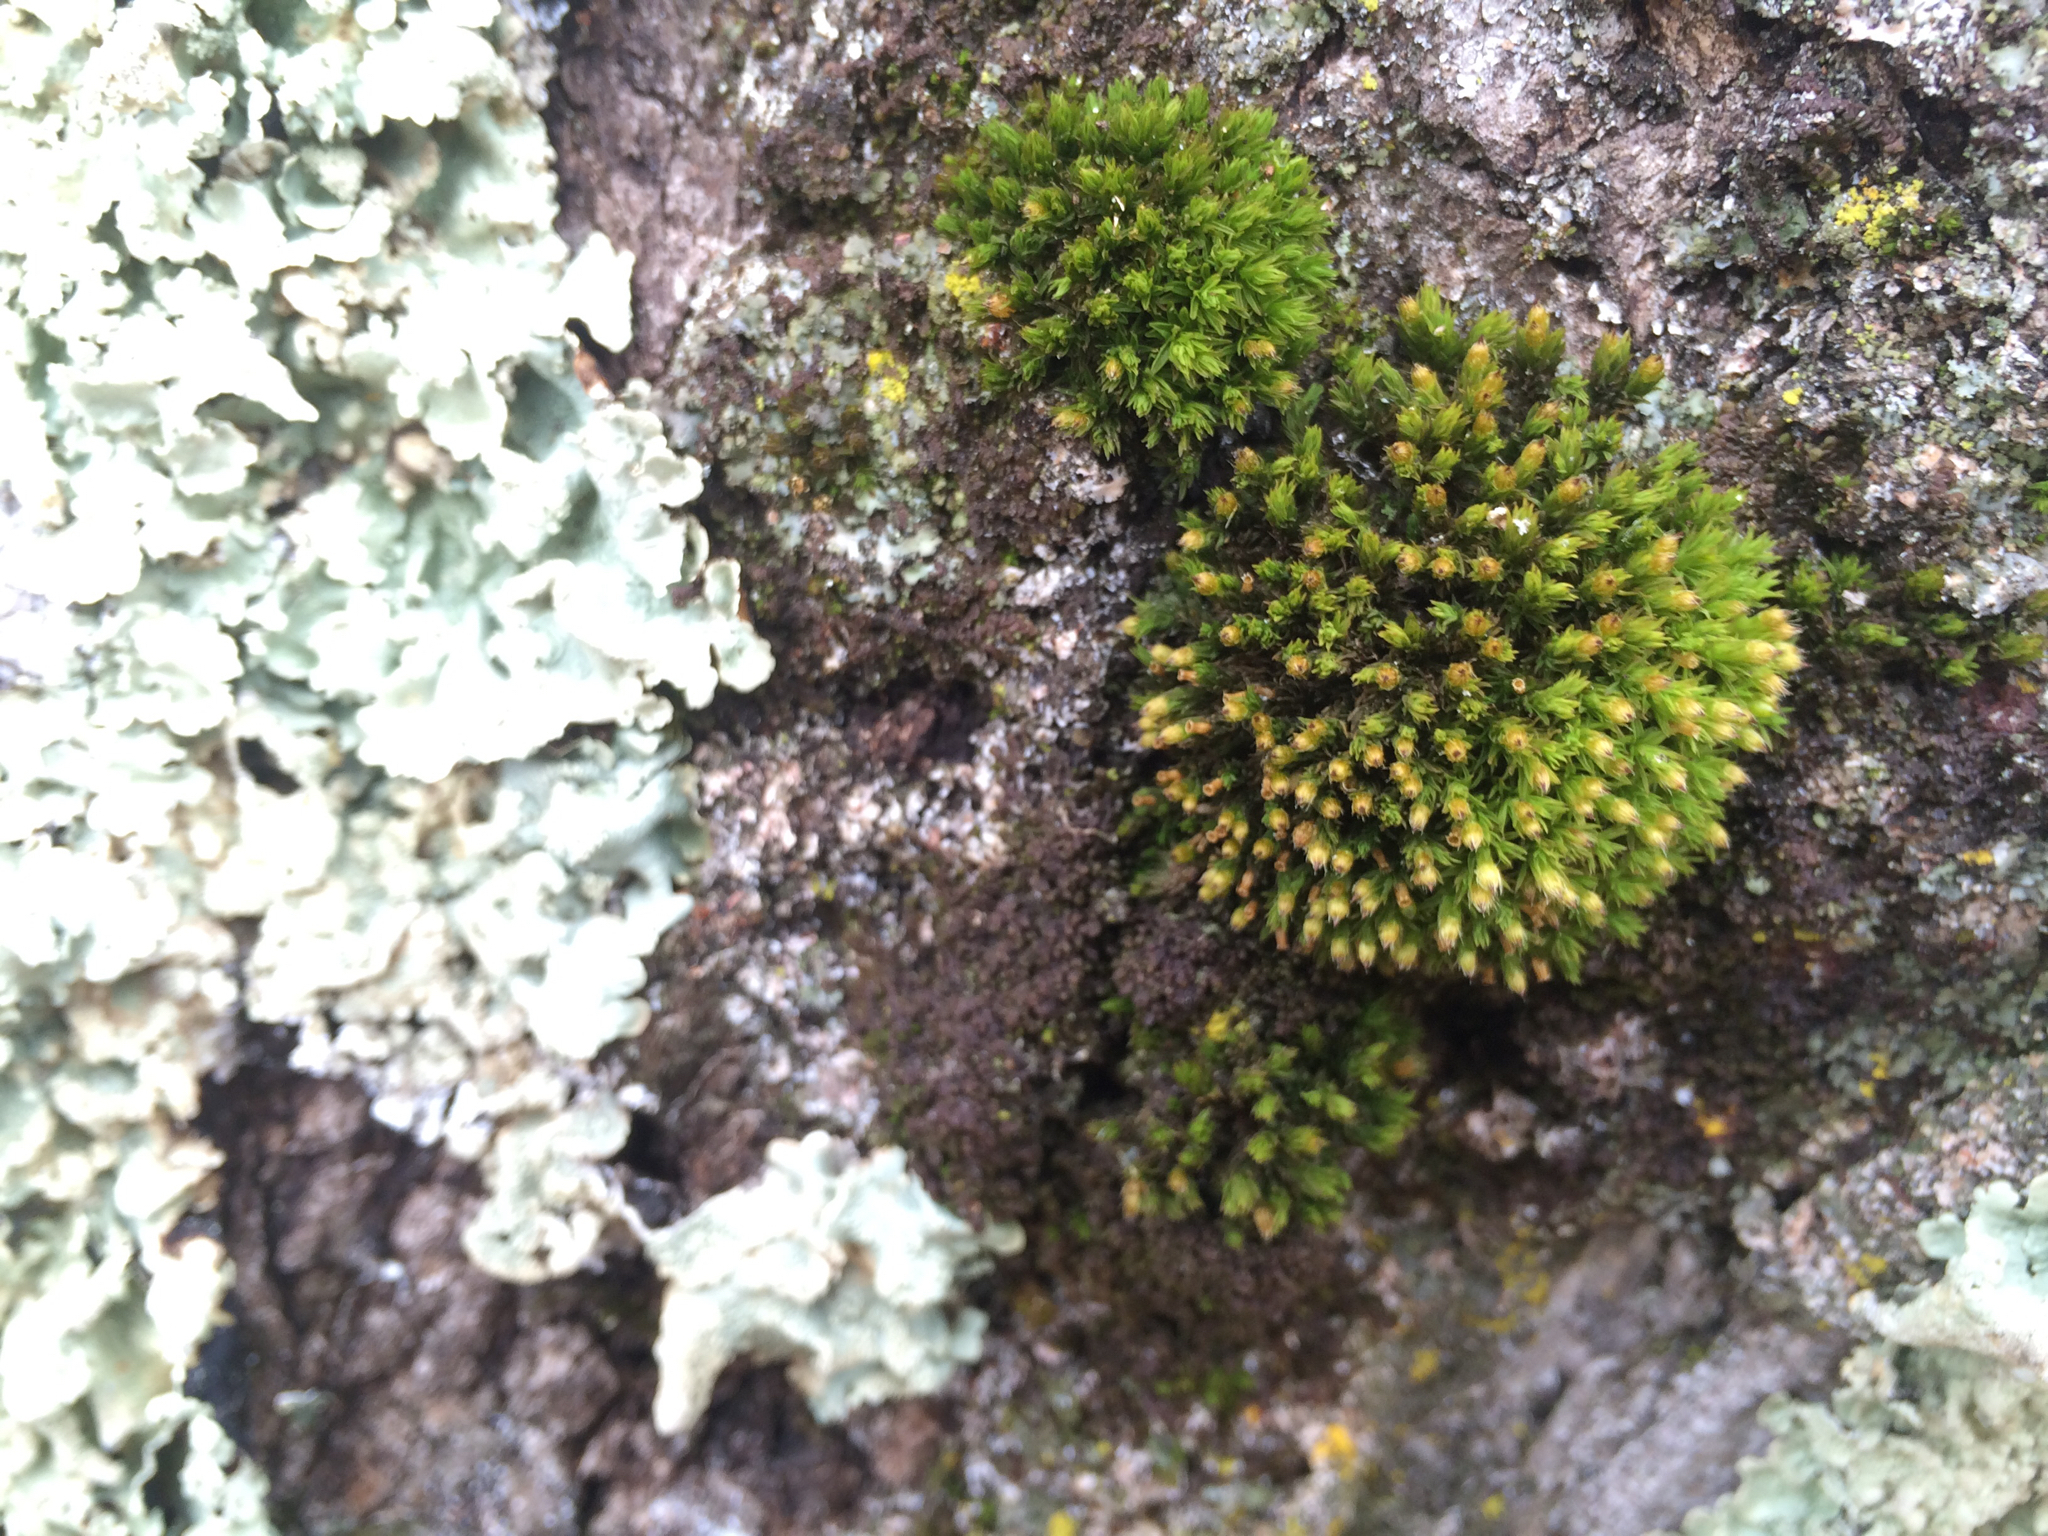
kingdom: Plantae
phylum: Bryophyta
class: Bryopsida
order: Orthotrichales
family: Orthotrichaceae
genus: Orthotrichum
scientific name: Orthotrichum
